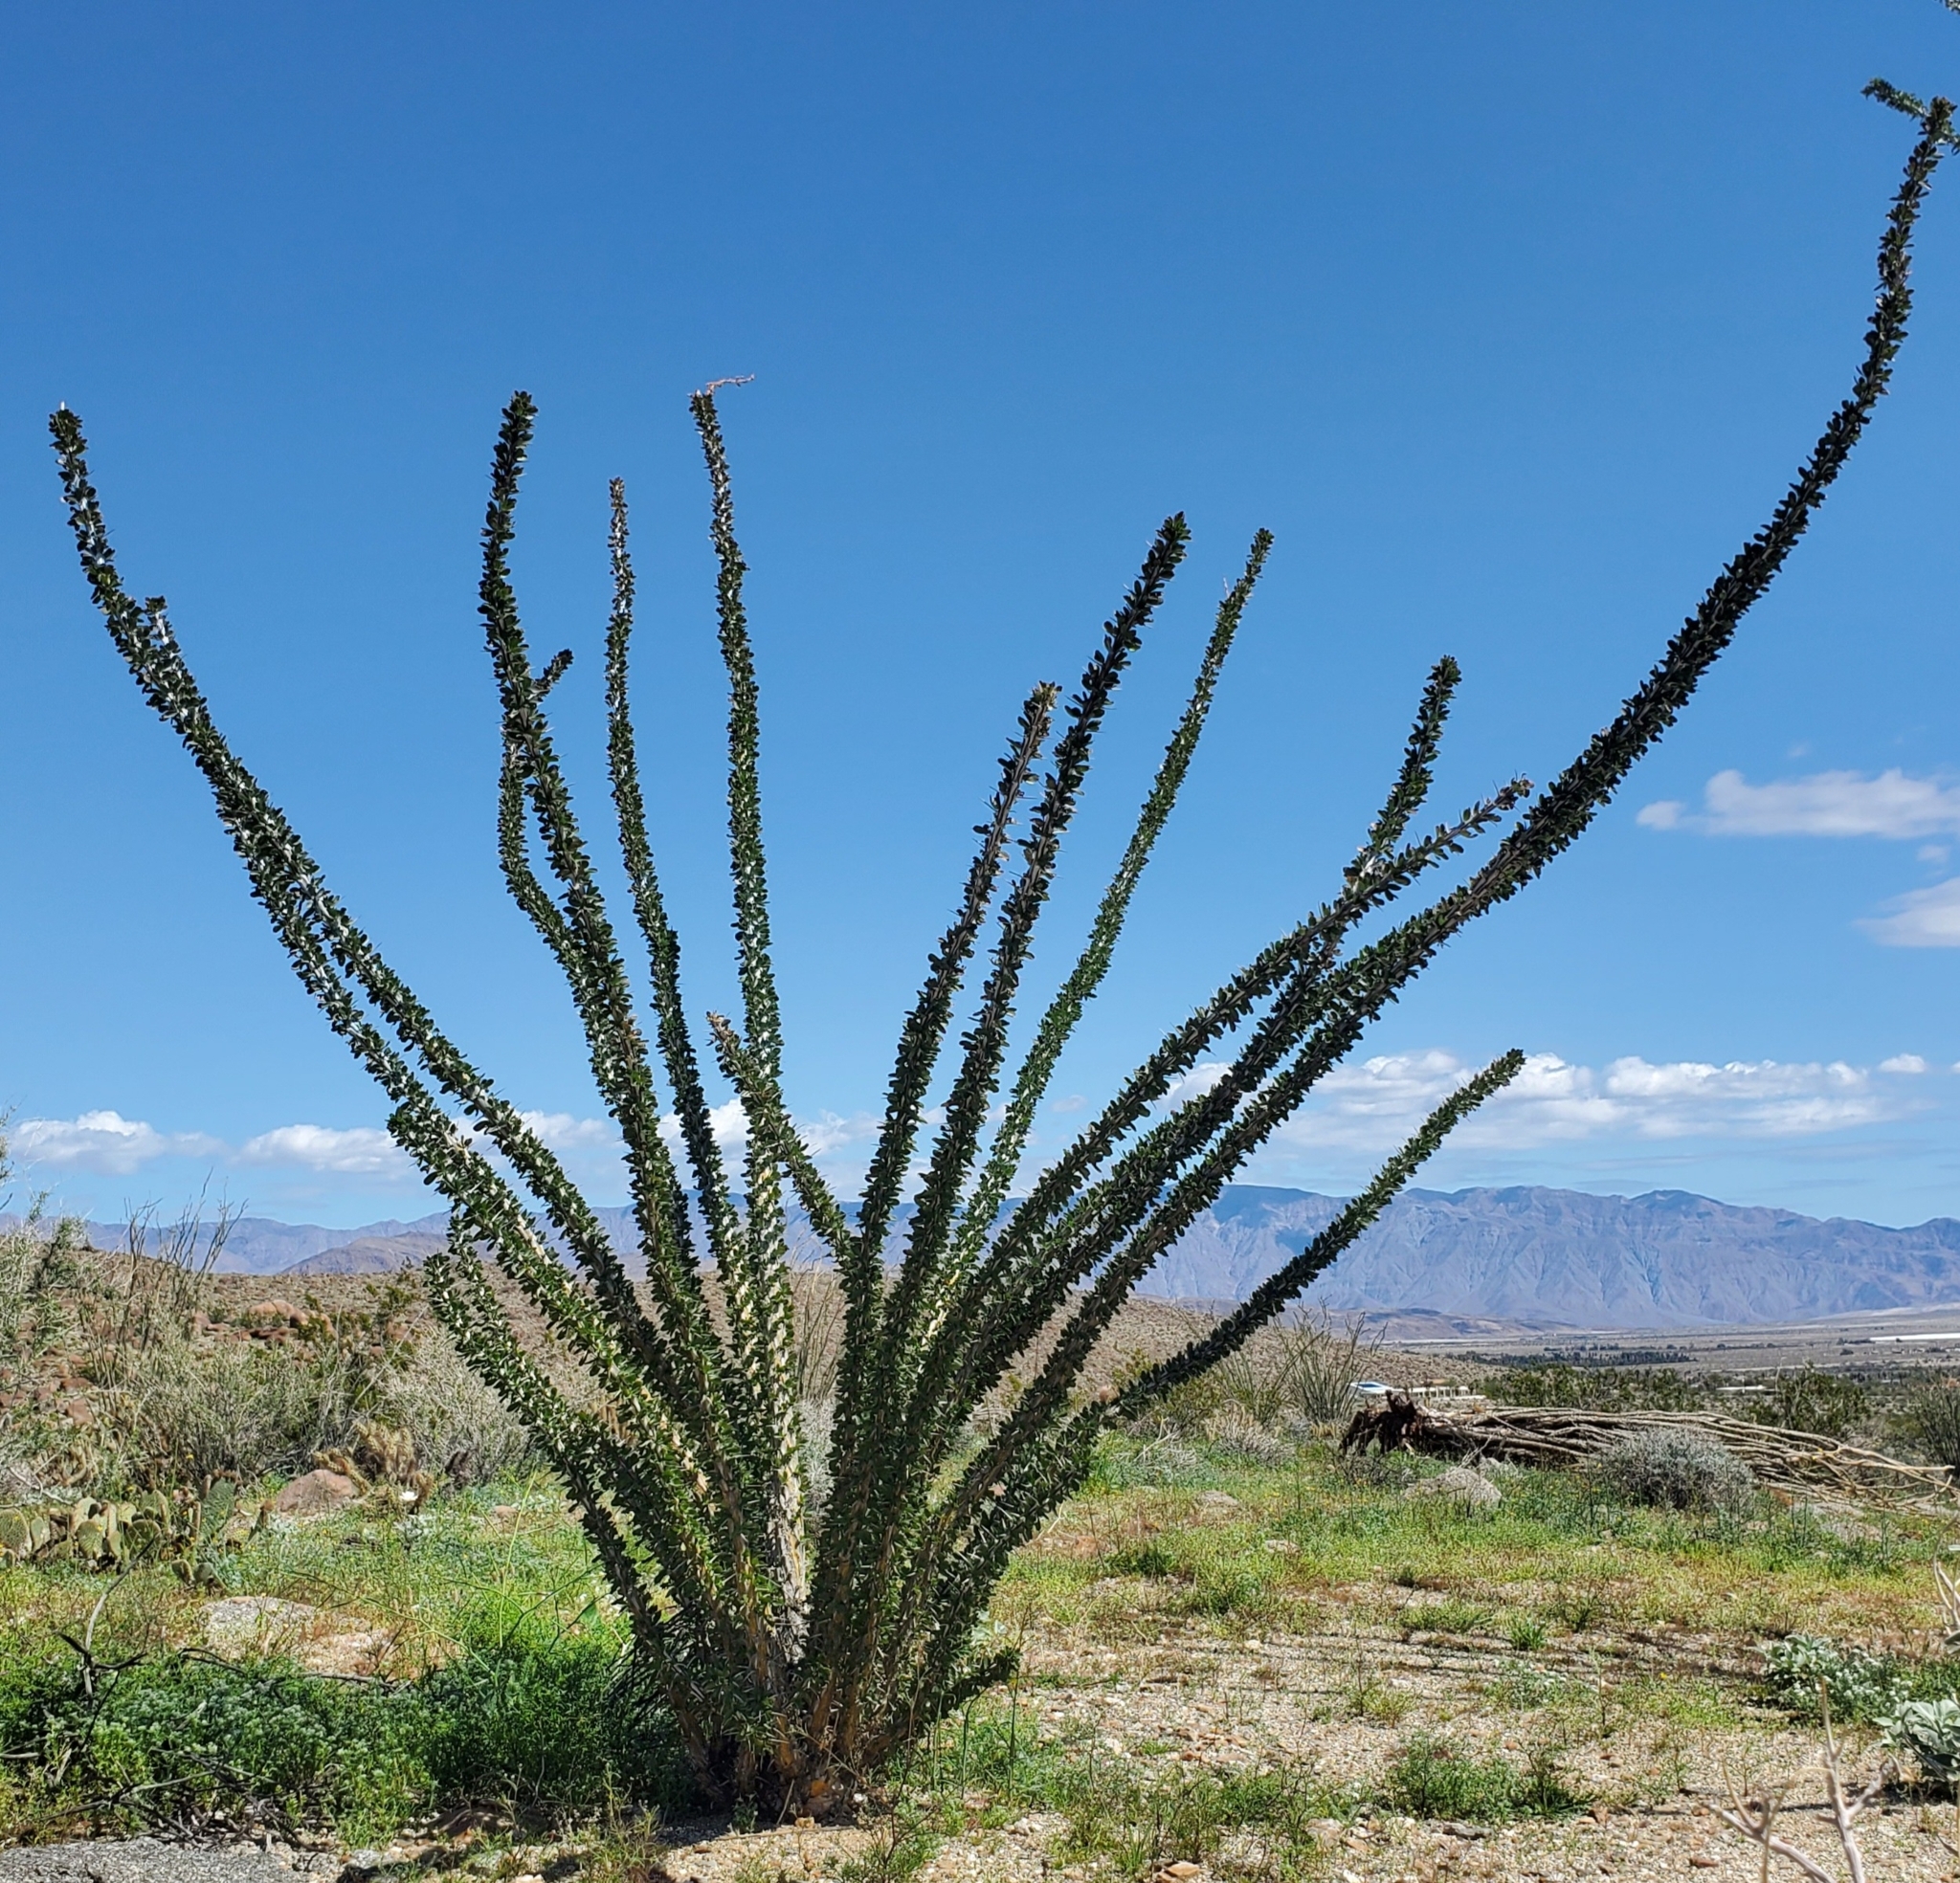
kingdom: Plantae
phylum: Tracheophyta
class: Magnoliopsida
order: Ericales
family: Fouquieriaceae
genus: Fouquieria
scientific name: Fouquieria splendens
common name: Vine-cactus
